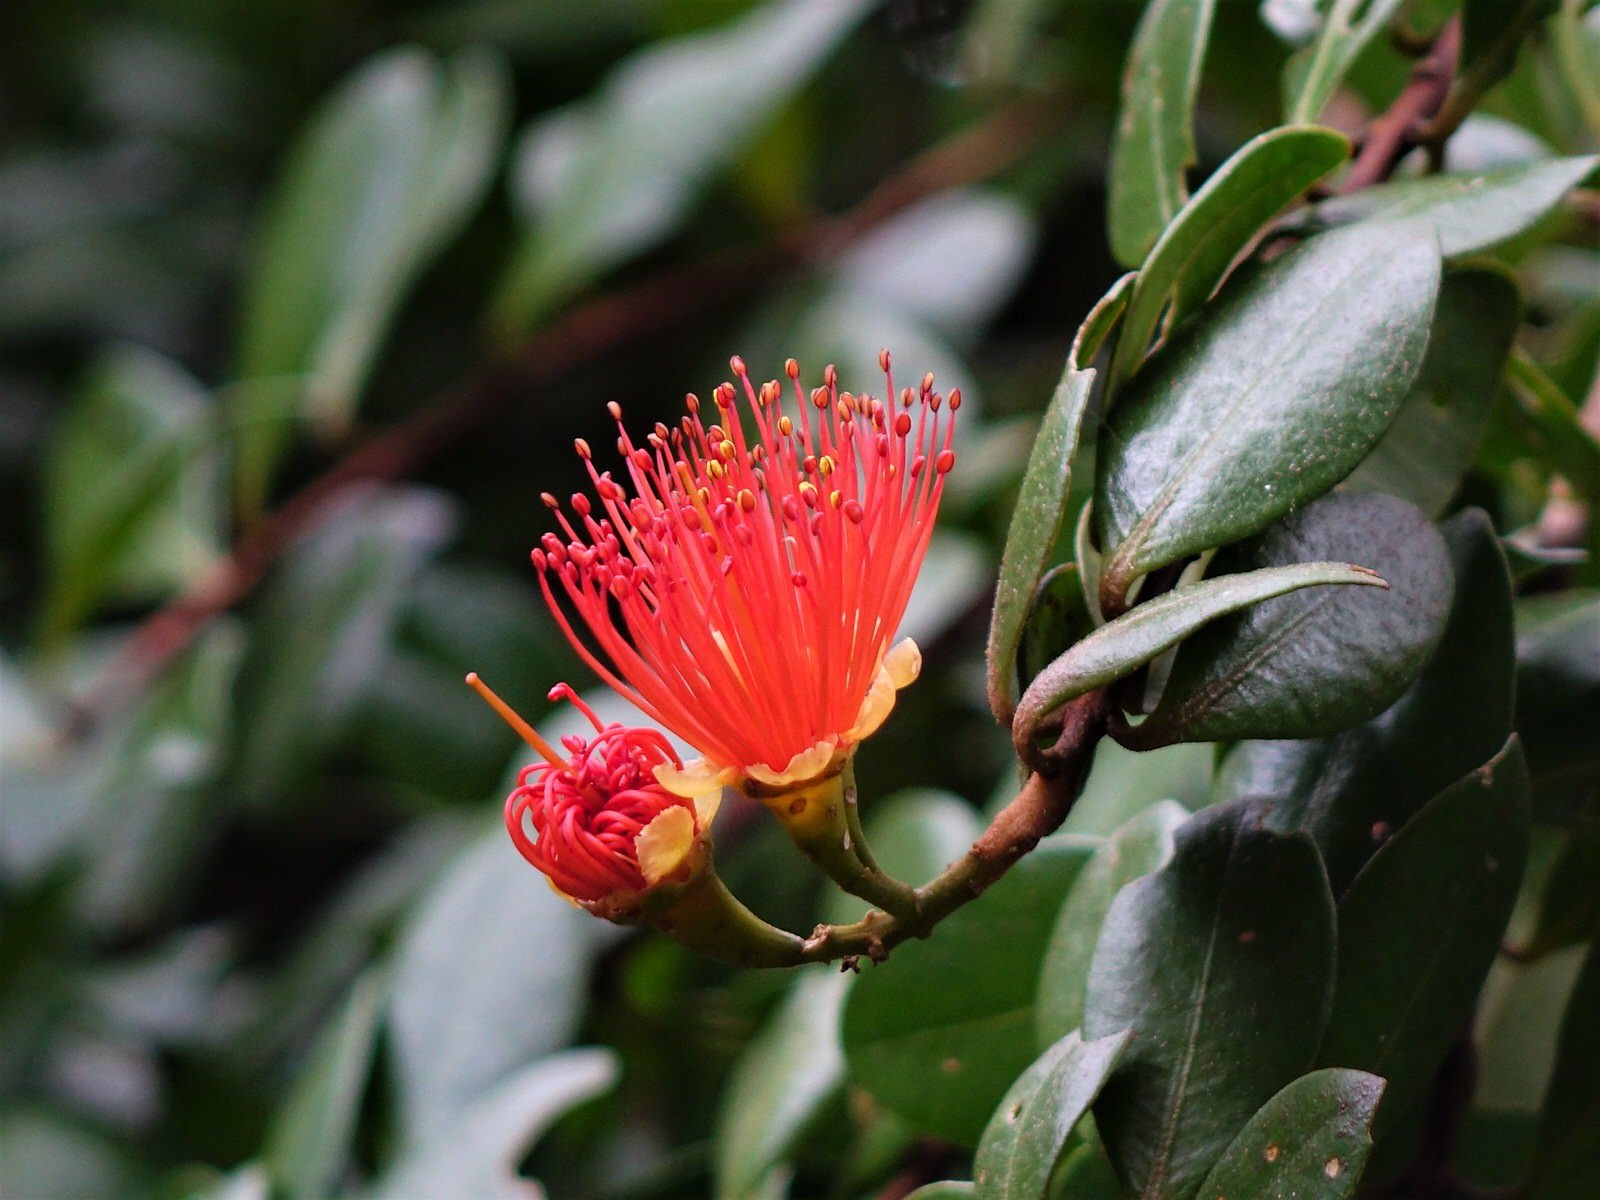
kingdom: Plantae
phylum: Tracheophyta
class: Magnoliopsida
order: Myrtales
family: Myrtaceae
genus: Metrosideros
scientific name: Metrosideros fulgens
